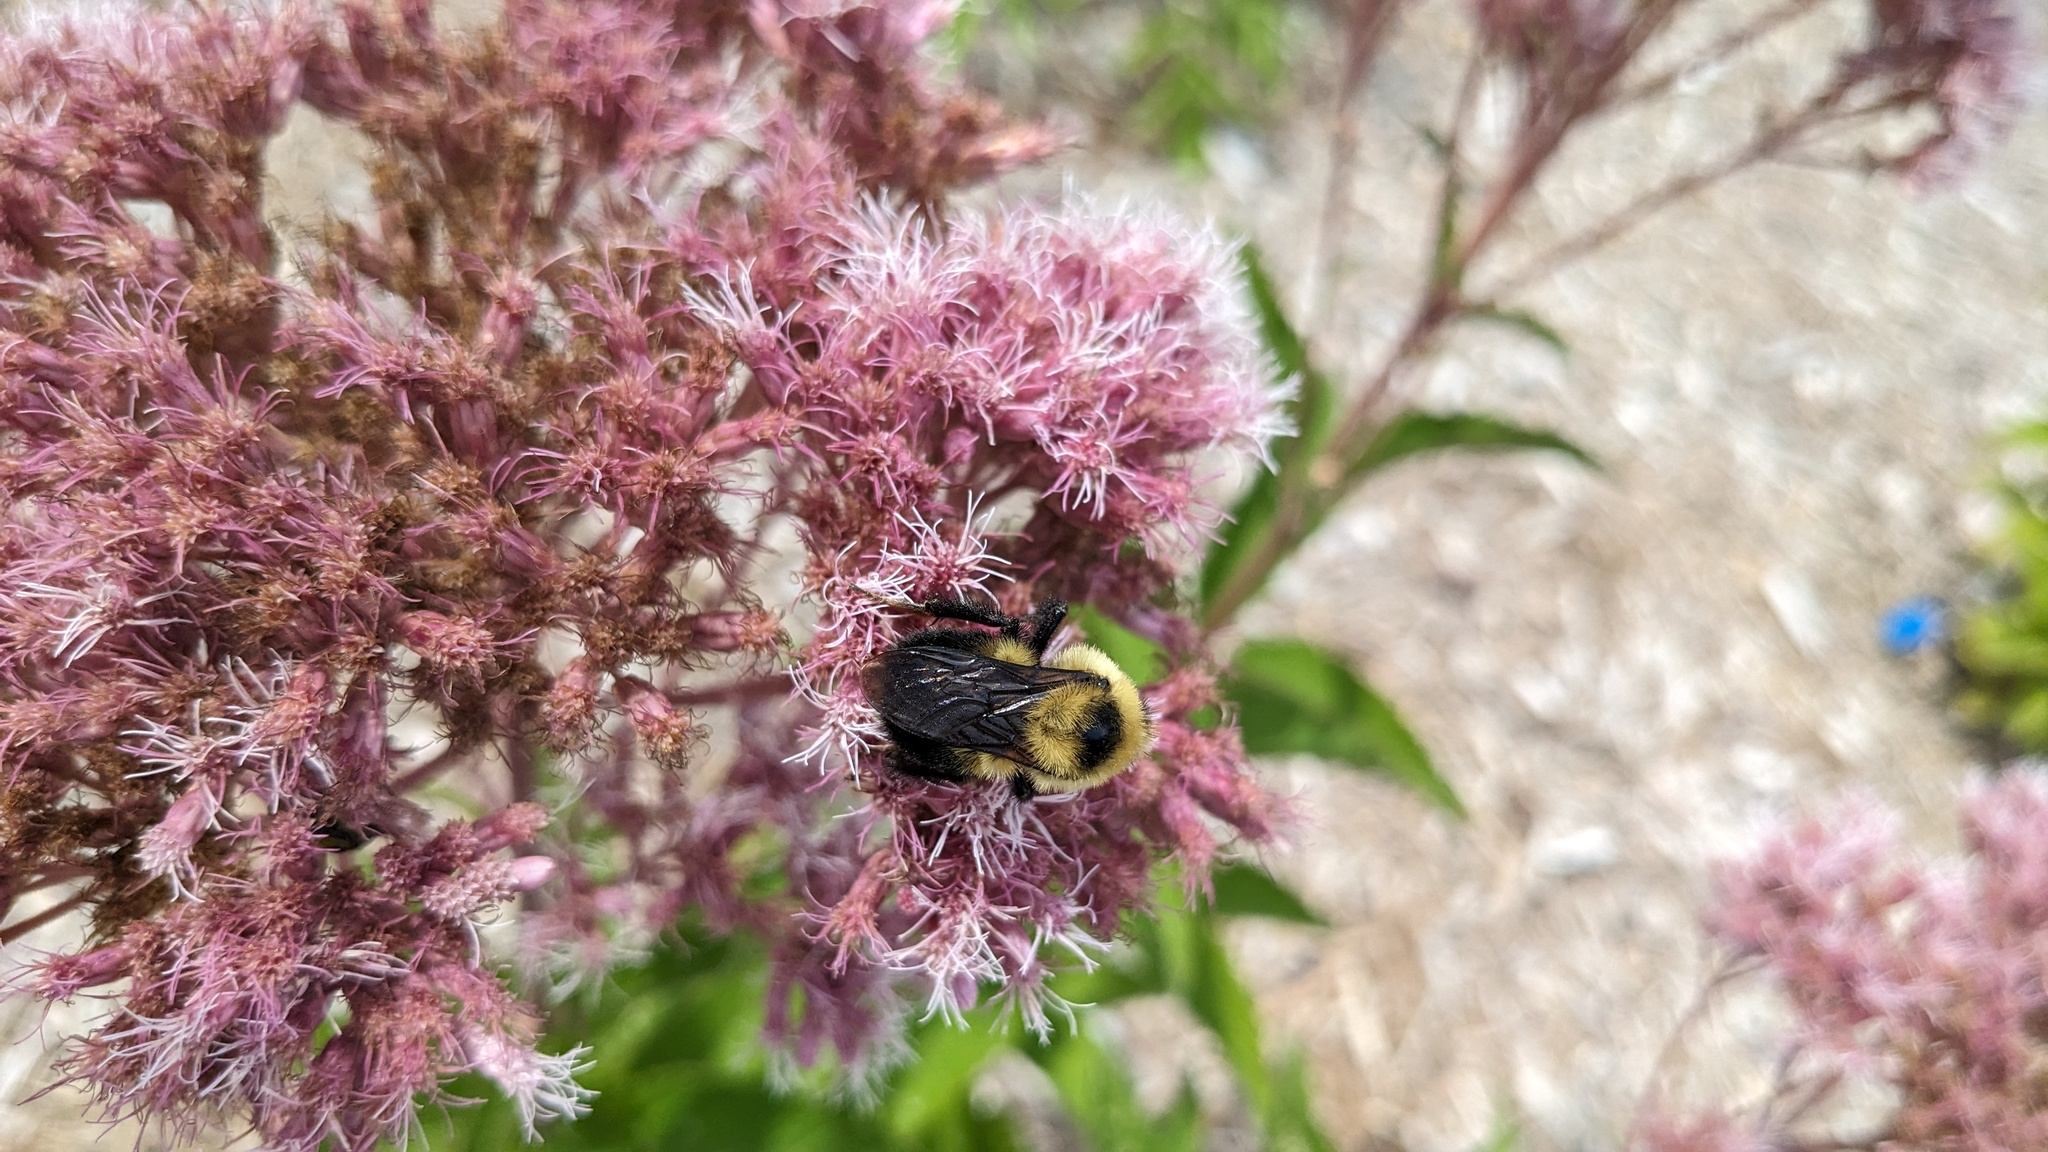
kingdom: Animalia
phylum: Arthropoda
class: Insecta
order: Hymenoptera
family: Apidae
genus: Bombus
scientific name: Bombus rufocinctus
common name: Red-belted bumble bee
